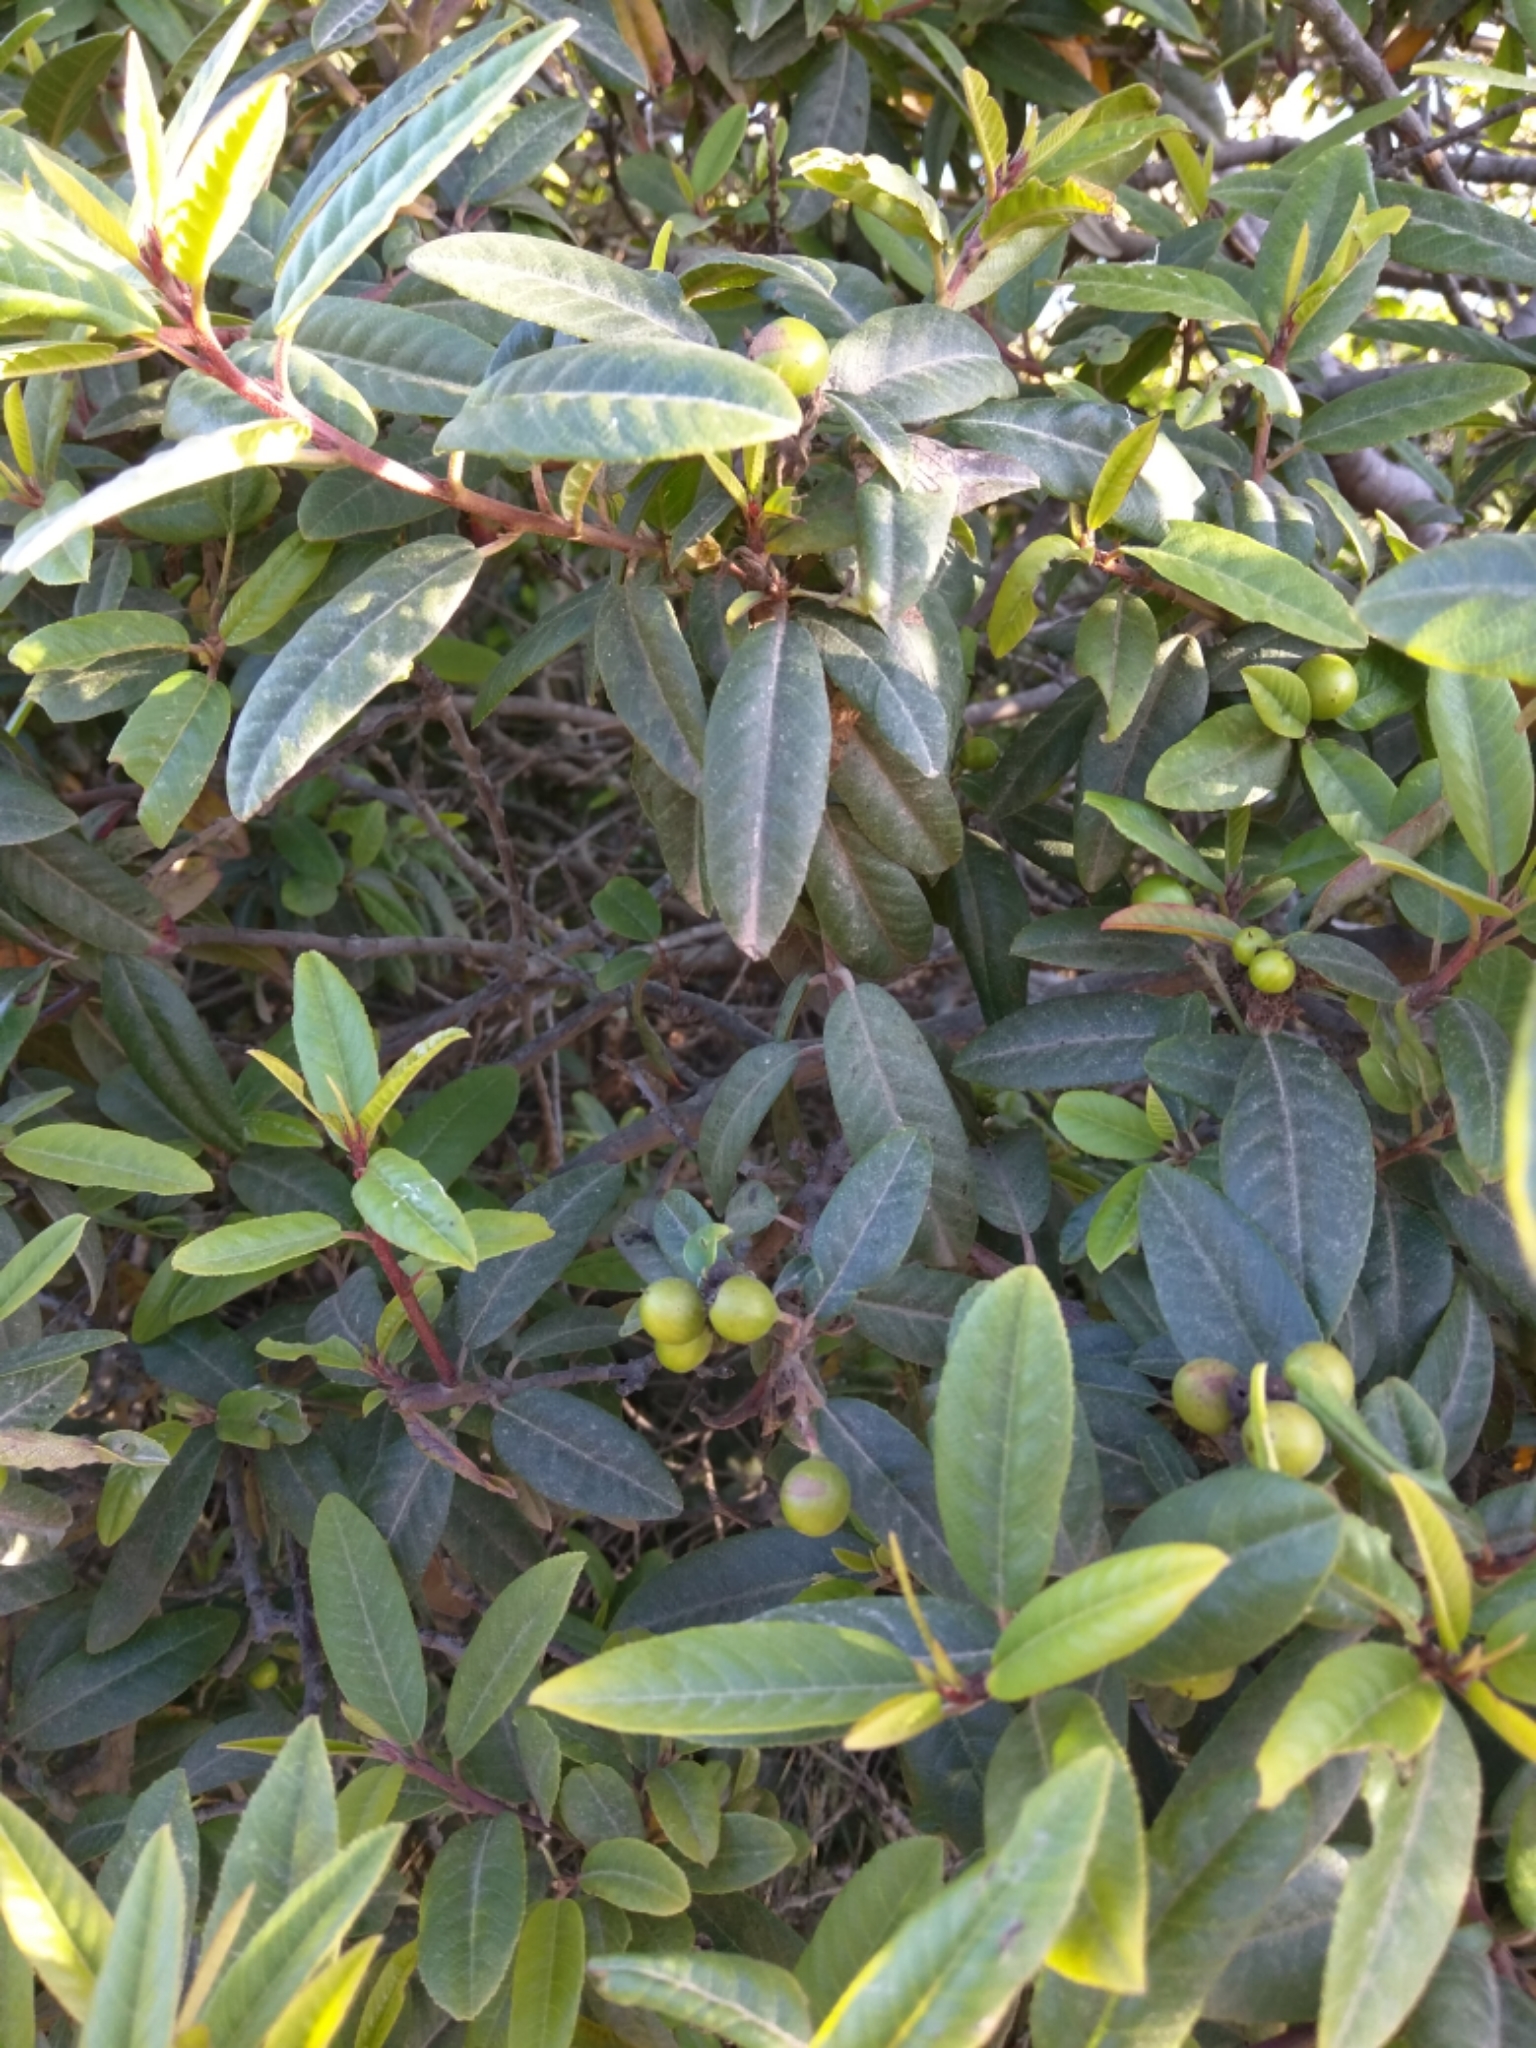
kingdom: Plantae
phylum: Tracheophyta
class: Magnoliopsida
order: Rosales
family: Rhamnaceae
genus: Frangula
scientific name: Frangula californica
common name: California buckthorn
